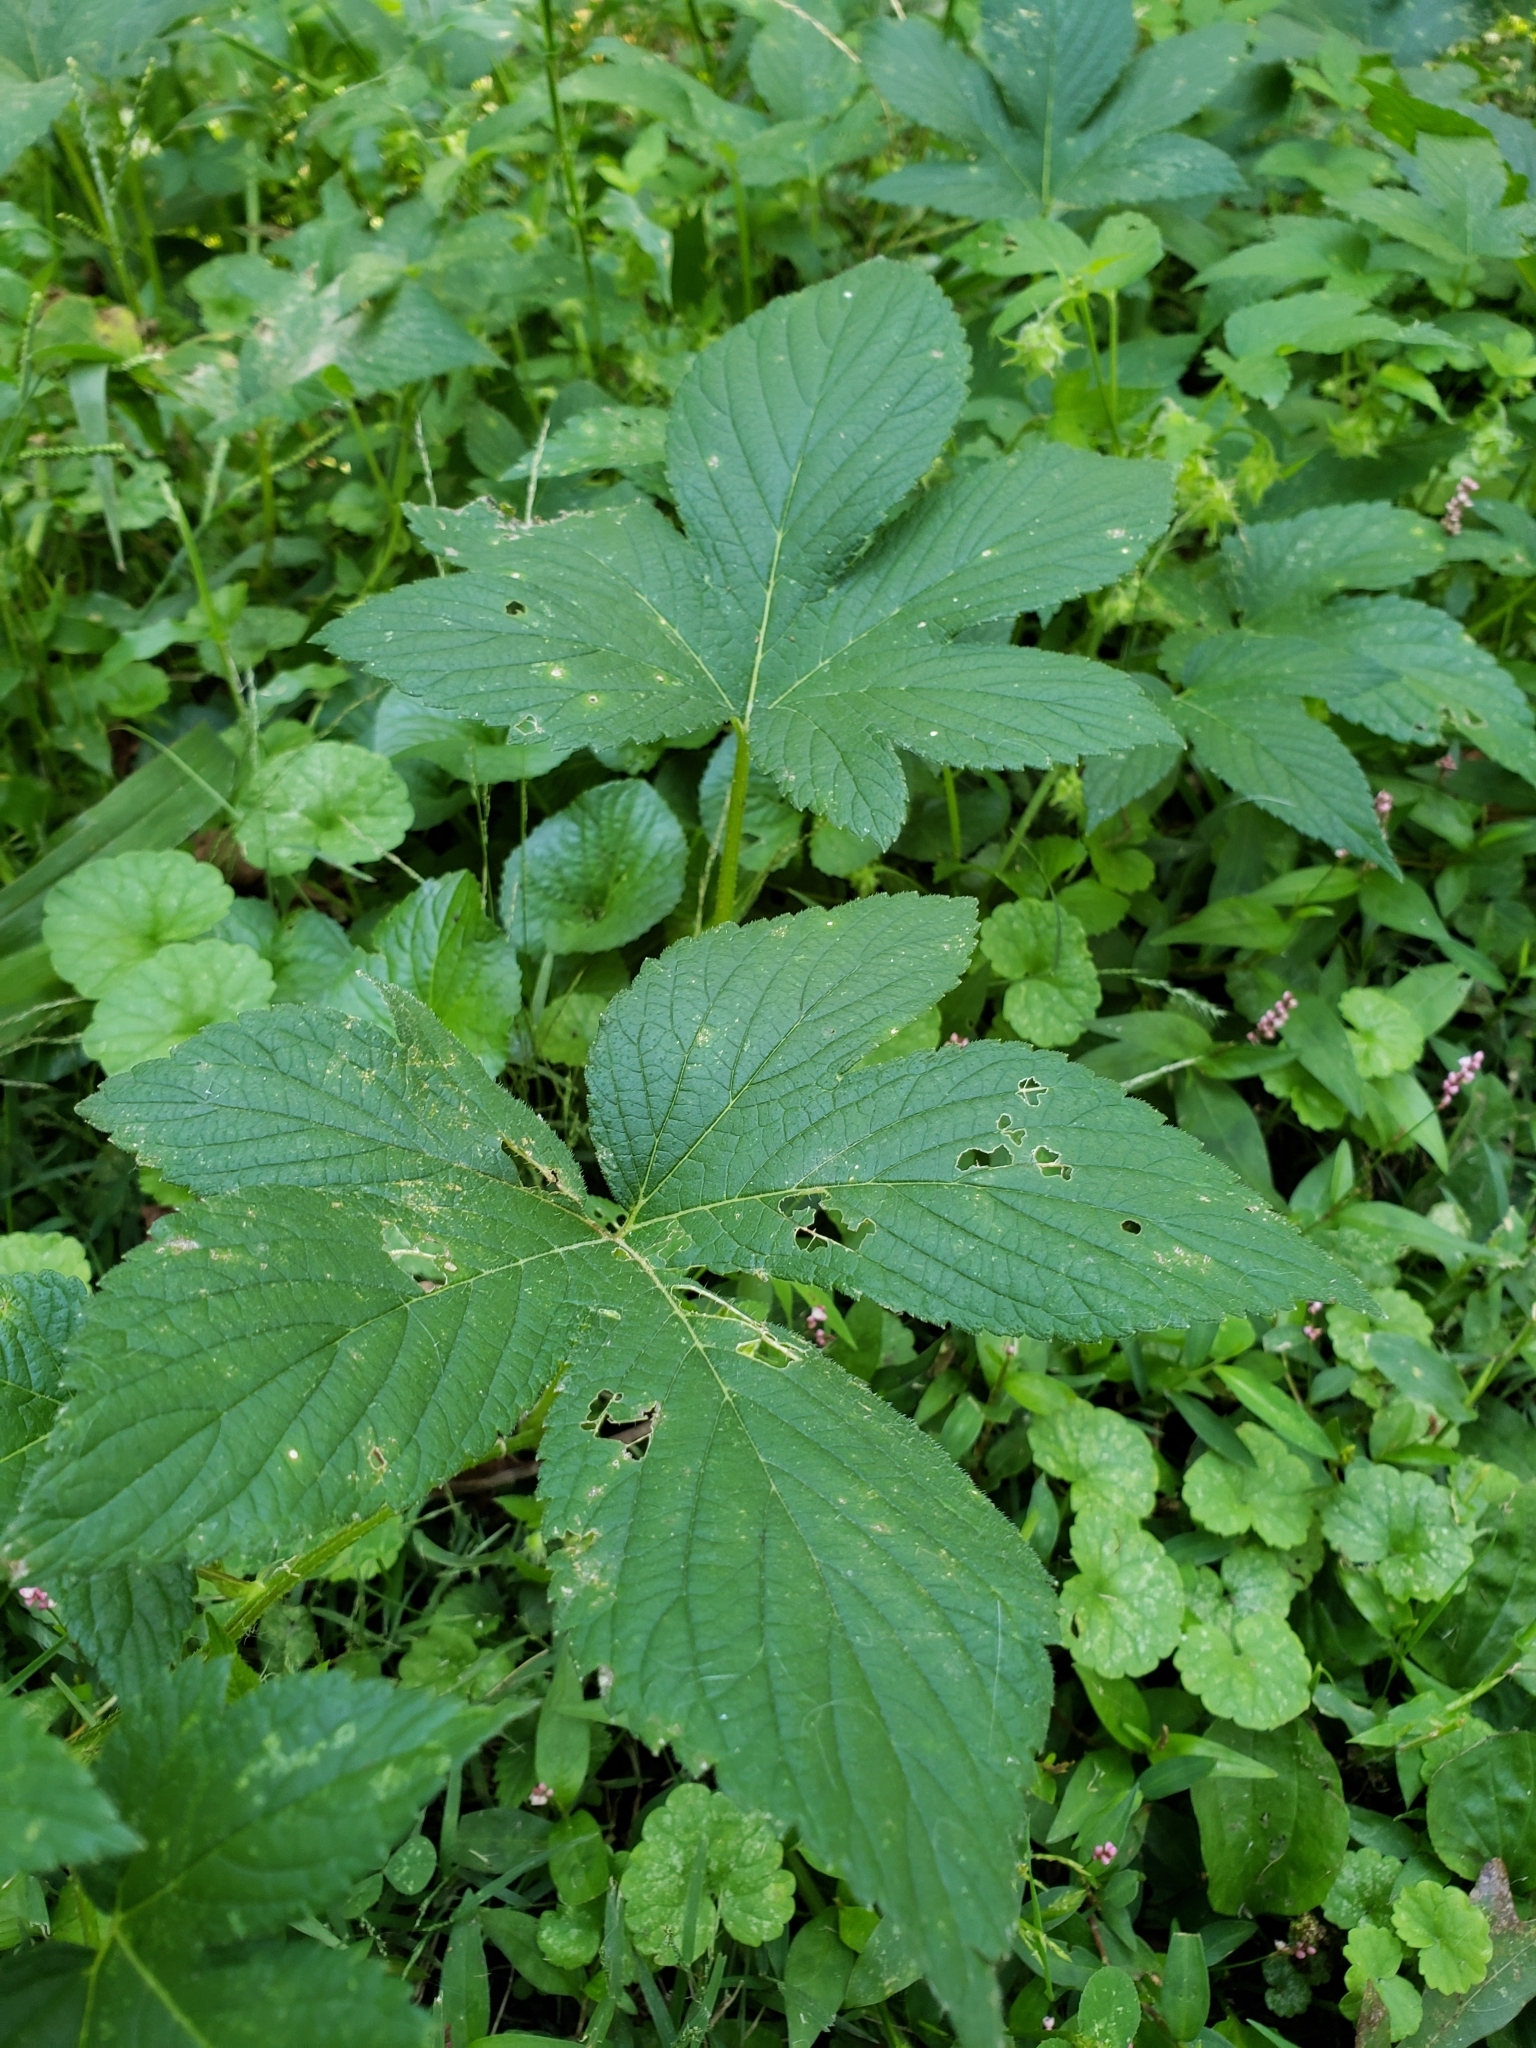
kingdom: Plantae
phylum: Tracheophyta
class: Magnoliopsida
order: Rosales
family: Cannabaceae
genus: Humulus
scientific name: Humulus scandens
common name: Japanese hop
